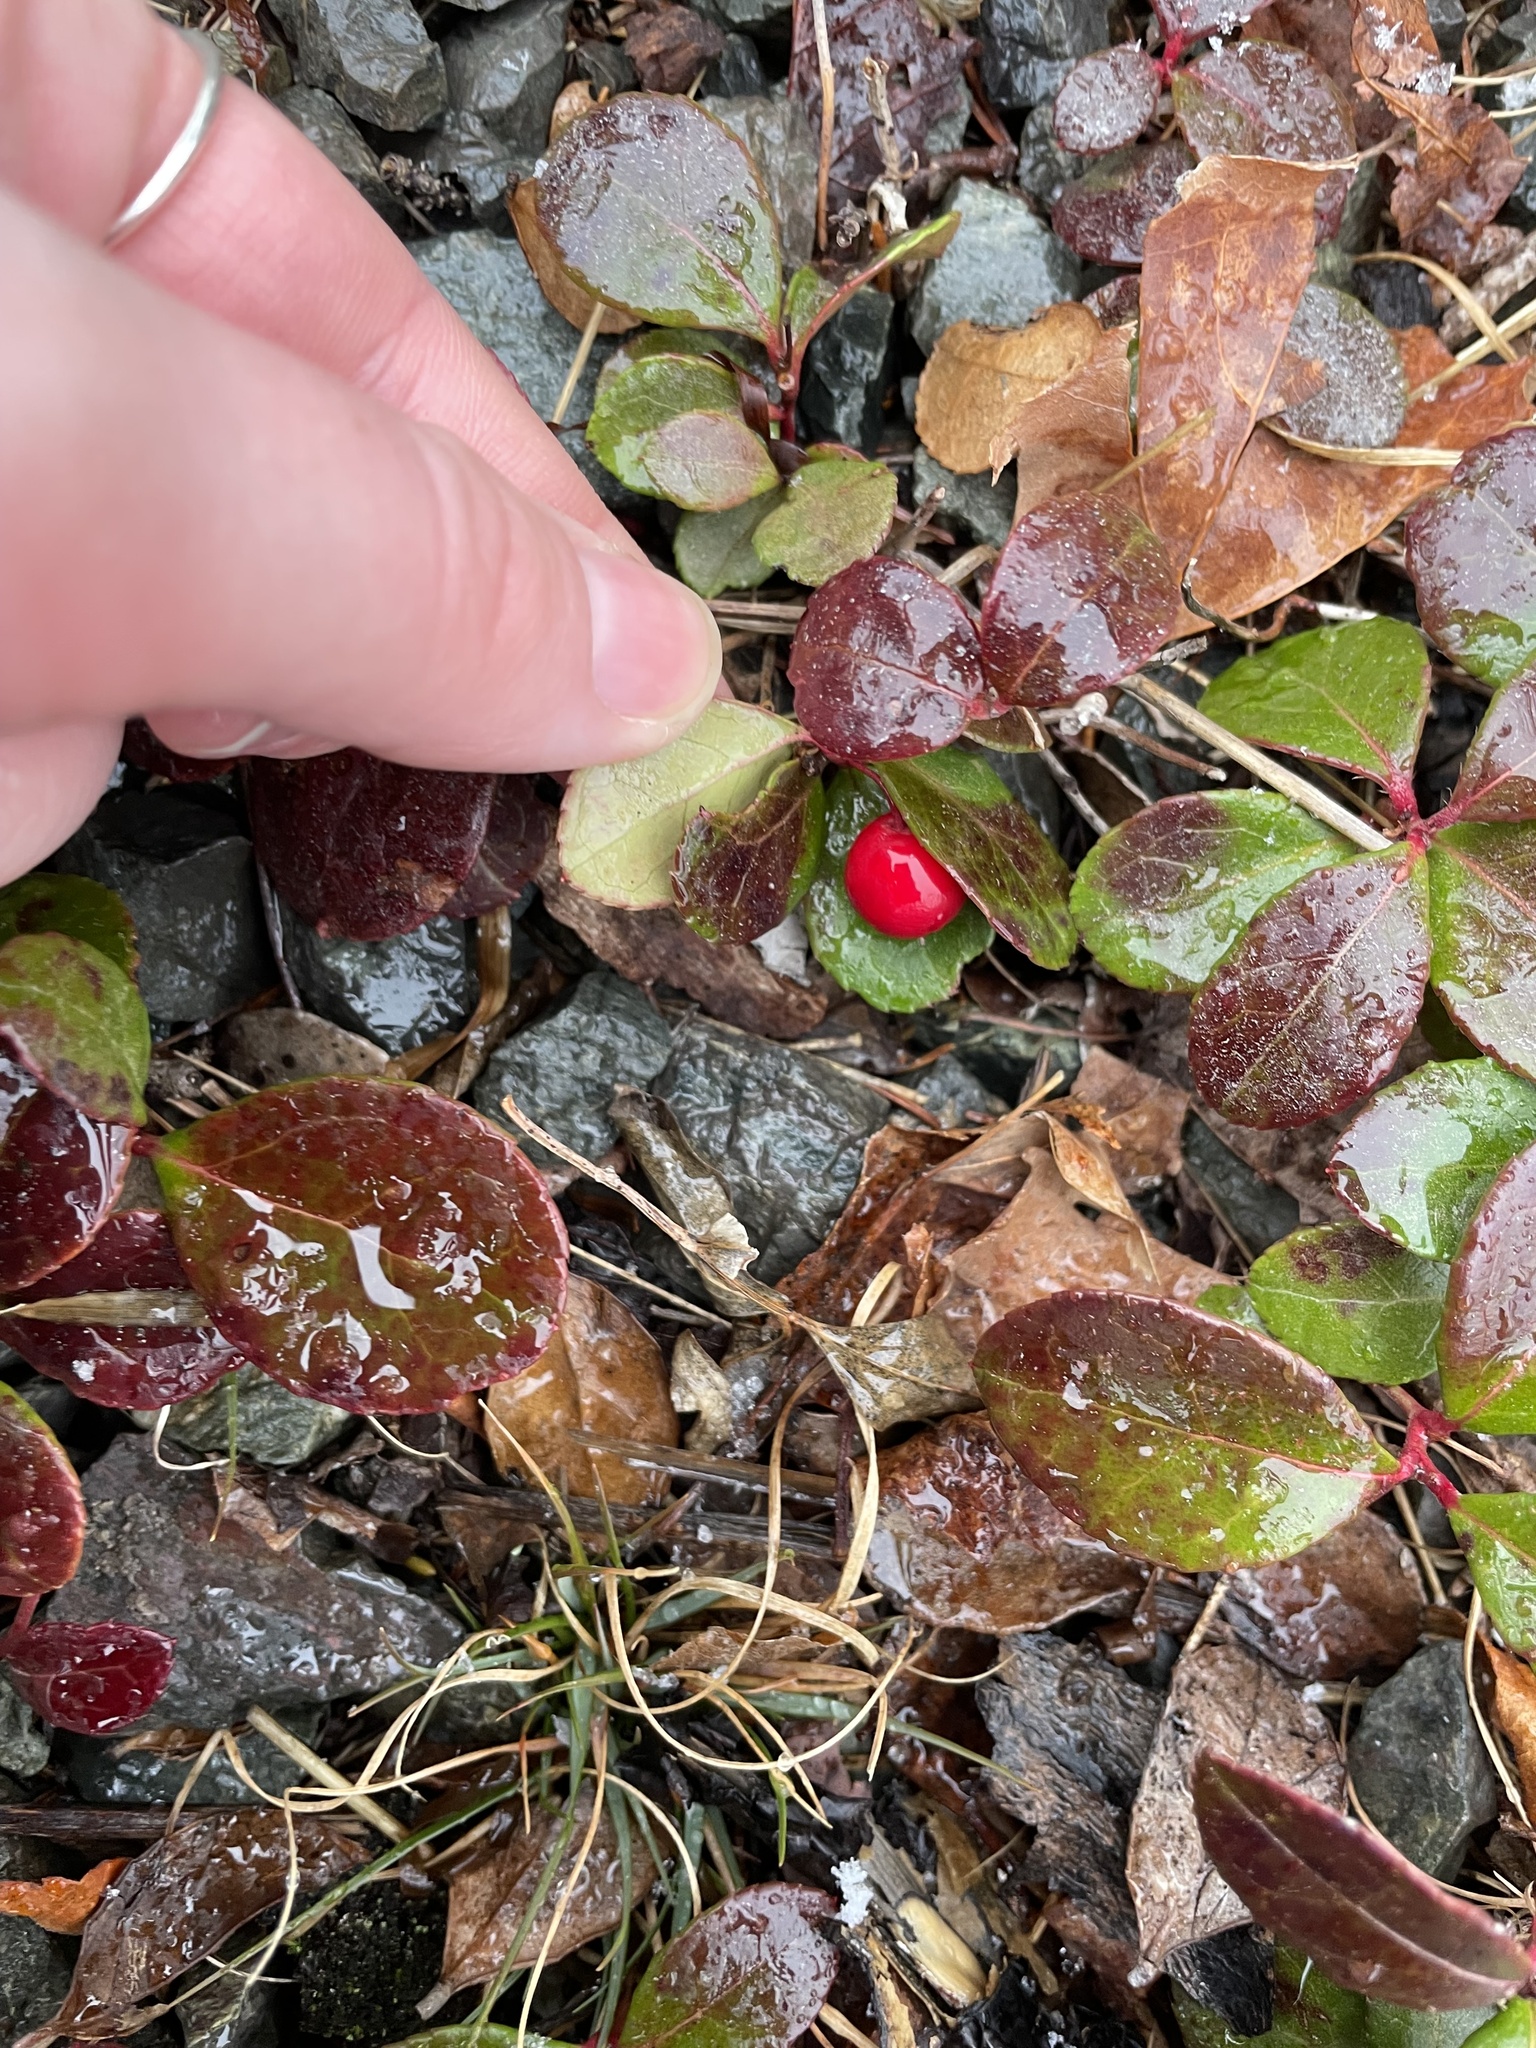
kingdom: Plantae
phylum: Tracheophyta
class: Magnoliopsida
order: Ericales
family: Ericaceae
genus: Gaultheria
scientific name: Gaultheria procumbens
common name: Checkerberry
